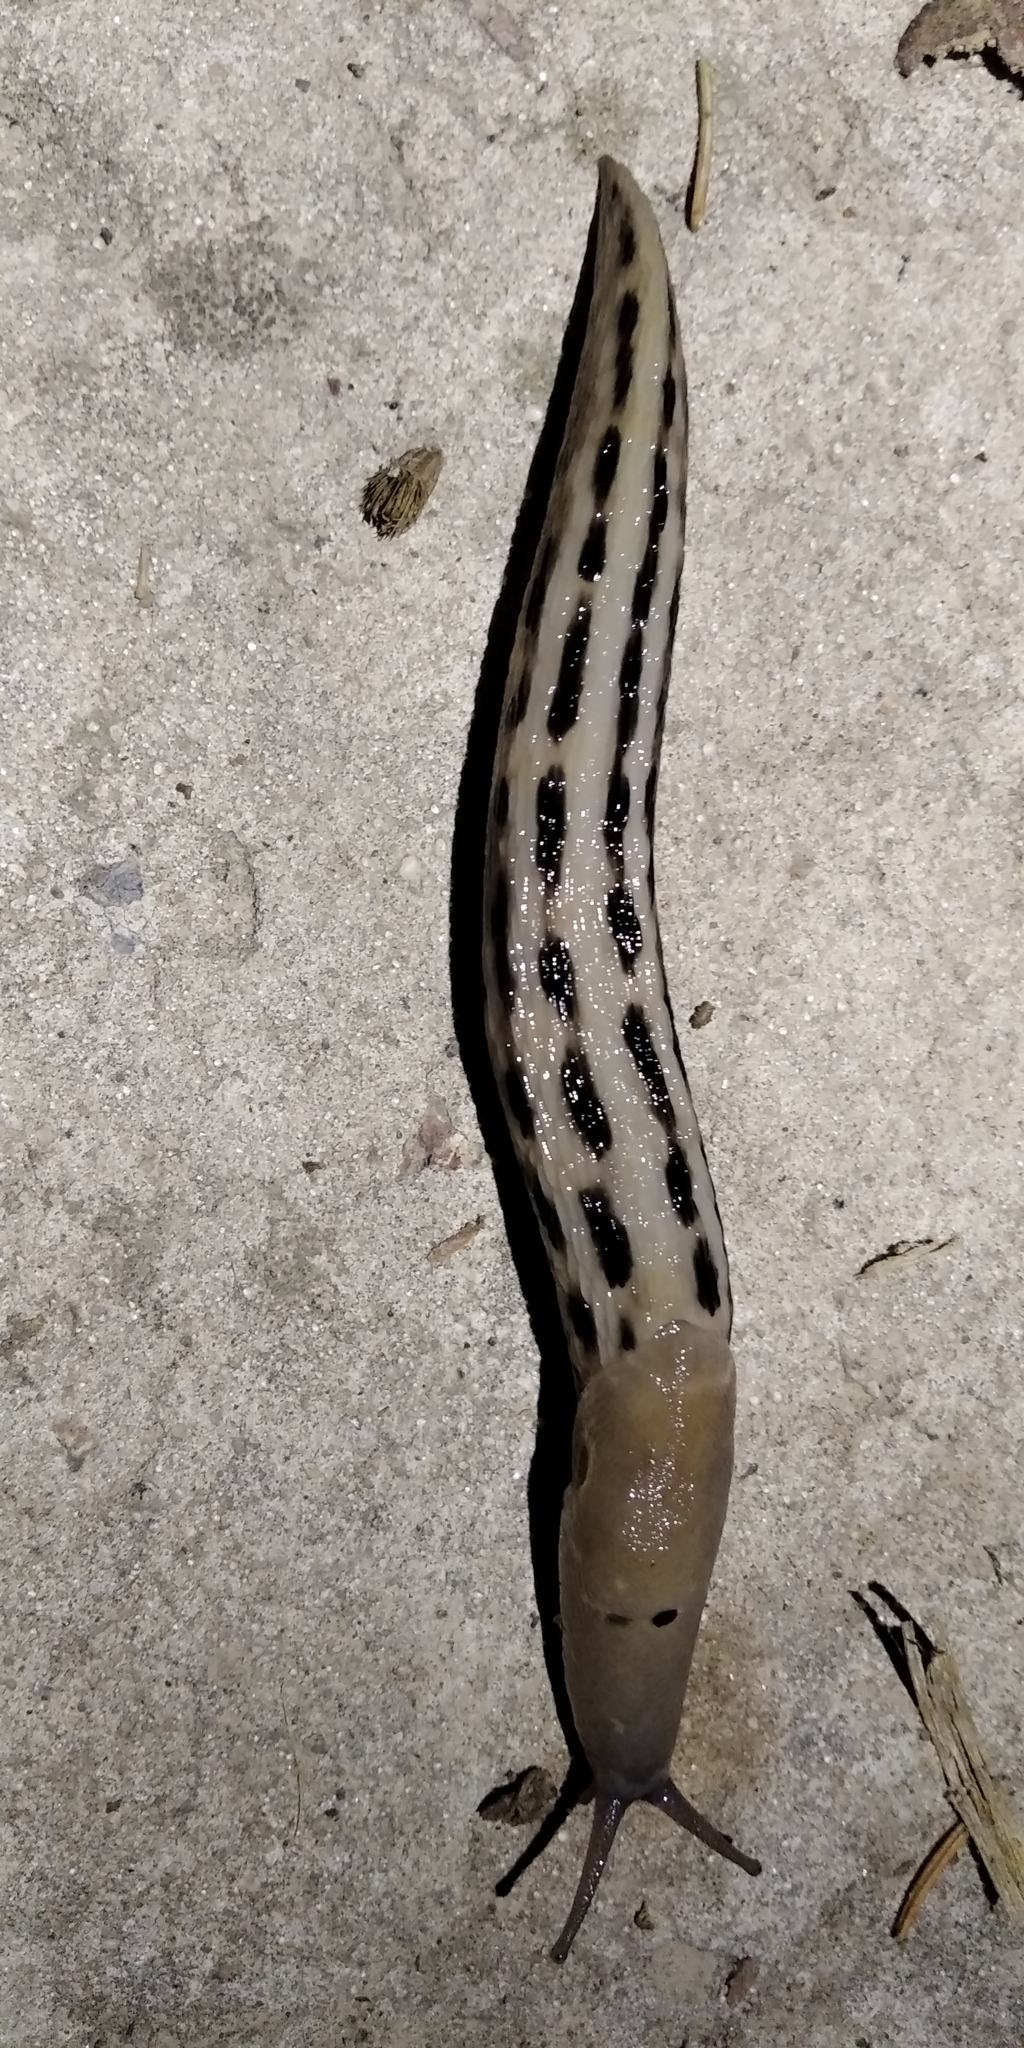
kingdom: Animalia
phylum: Mollusca
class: Gastropoda
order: Stylommatophora
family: Limacidae
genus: Limax
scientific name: Limax maximus
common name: Great grey slug
